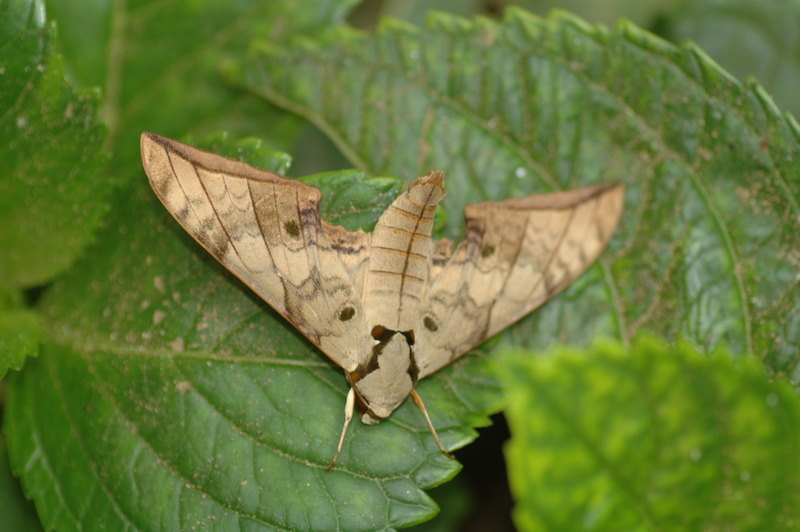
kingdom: Animalia
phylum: Arthropoda
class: Insecta
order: Lepidoptera
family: Sphingidae
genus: Ambulyx
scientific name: Ambulyx substrigilis
